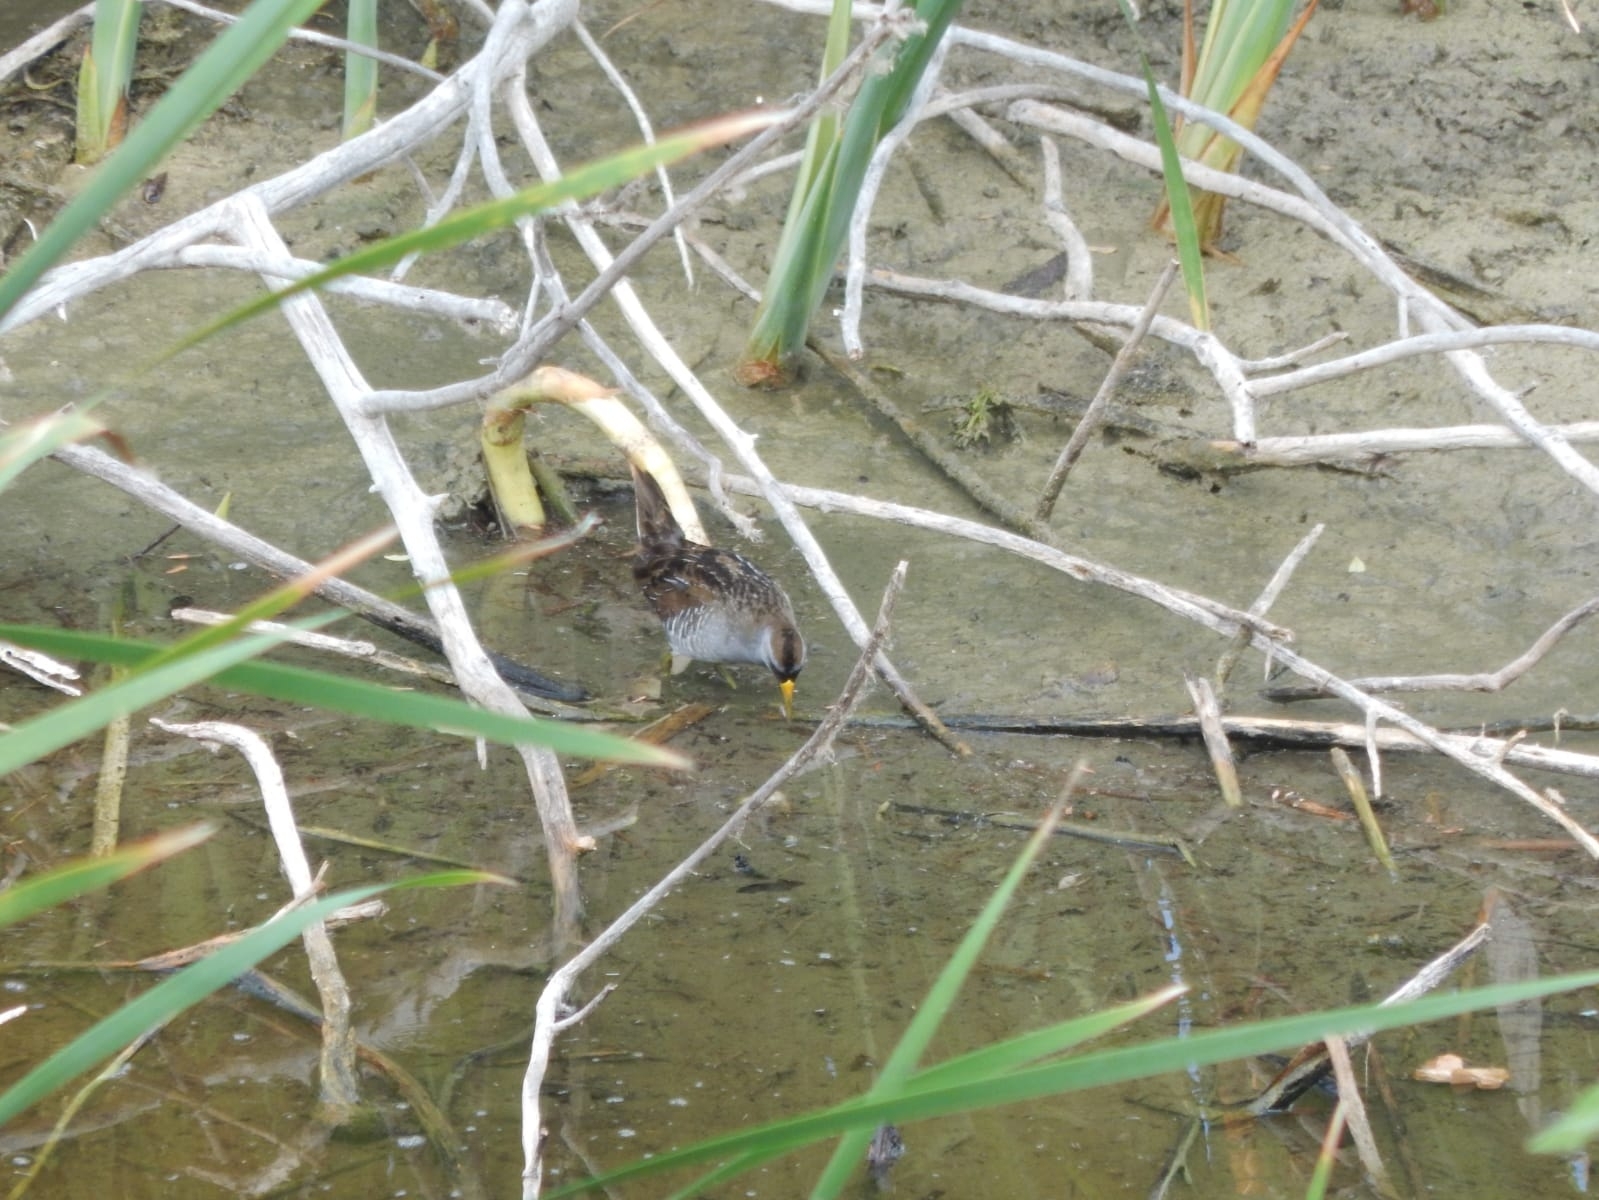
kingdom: Animalia
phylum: Chordata
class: Aves
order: Gruiformes
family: Rallidae
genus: Porzana
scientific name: Porzana carolina
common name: Sora
